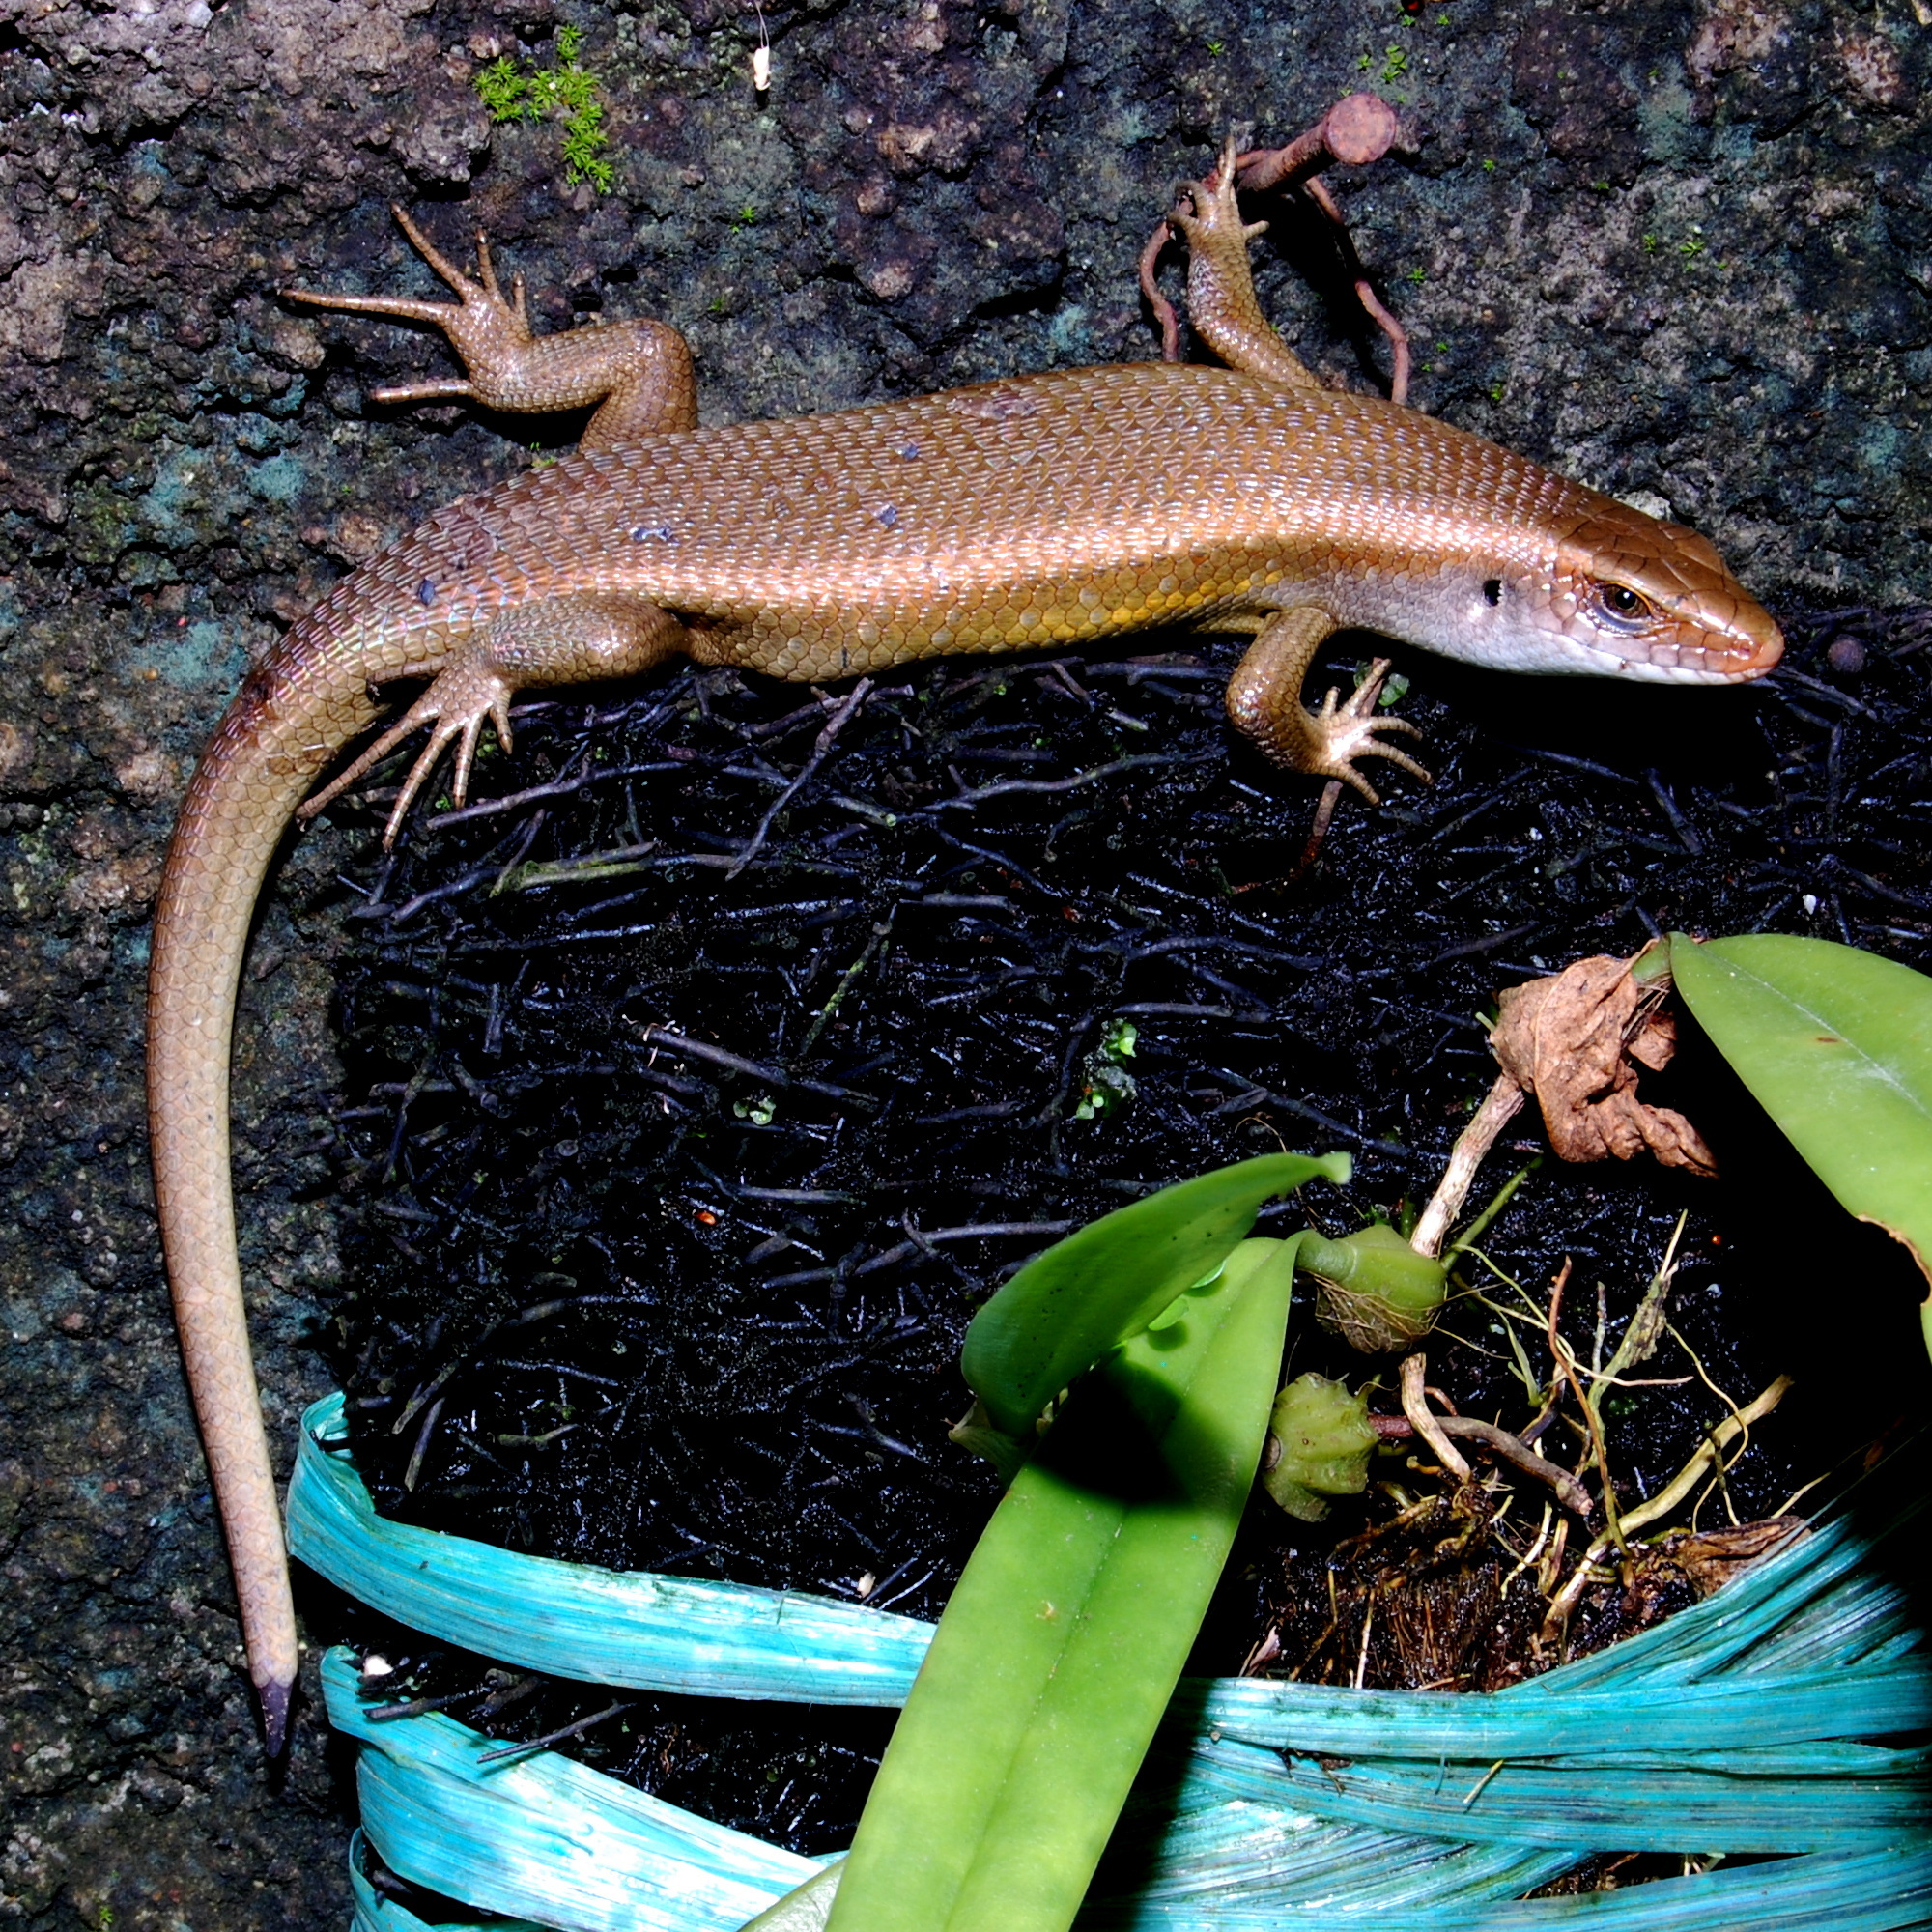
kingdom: Animalia
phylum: Chordata
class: Squamata
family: Scincidae
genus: Eutropis
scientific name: Eutropis multifasciata
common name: Common mabuya
